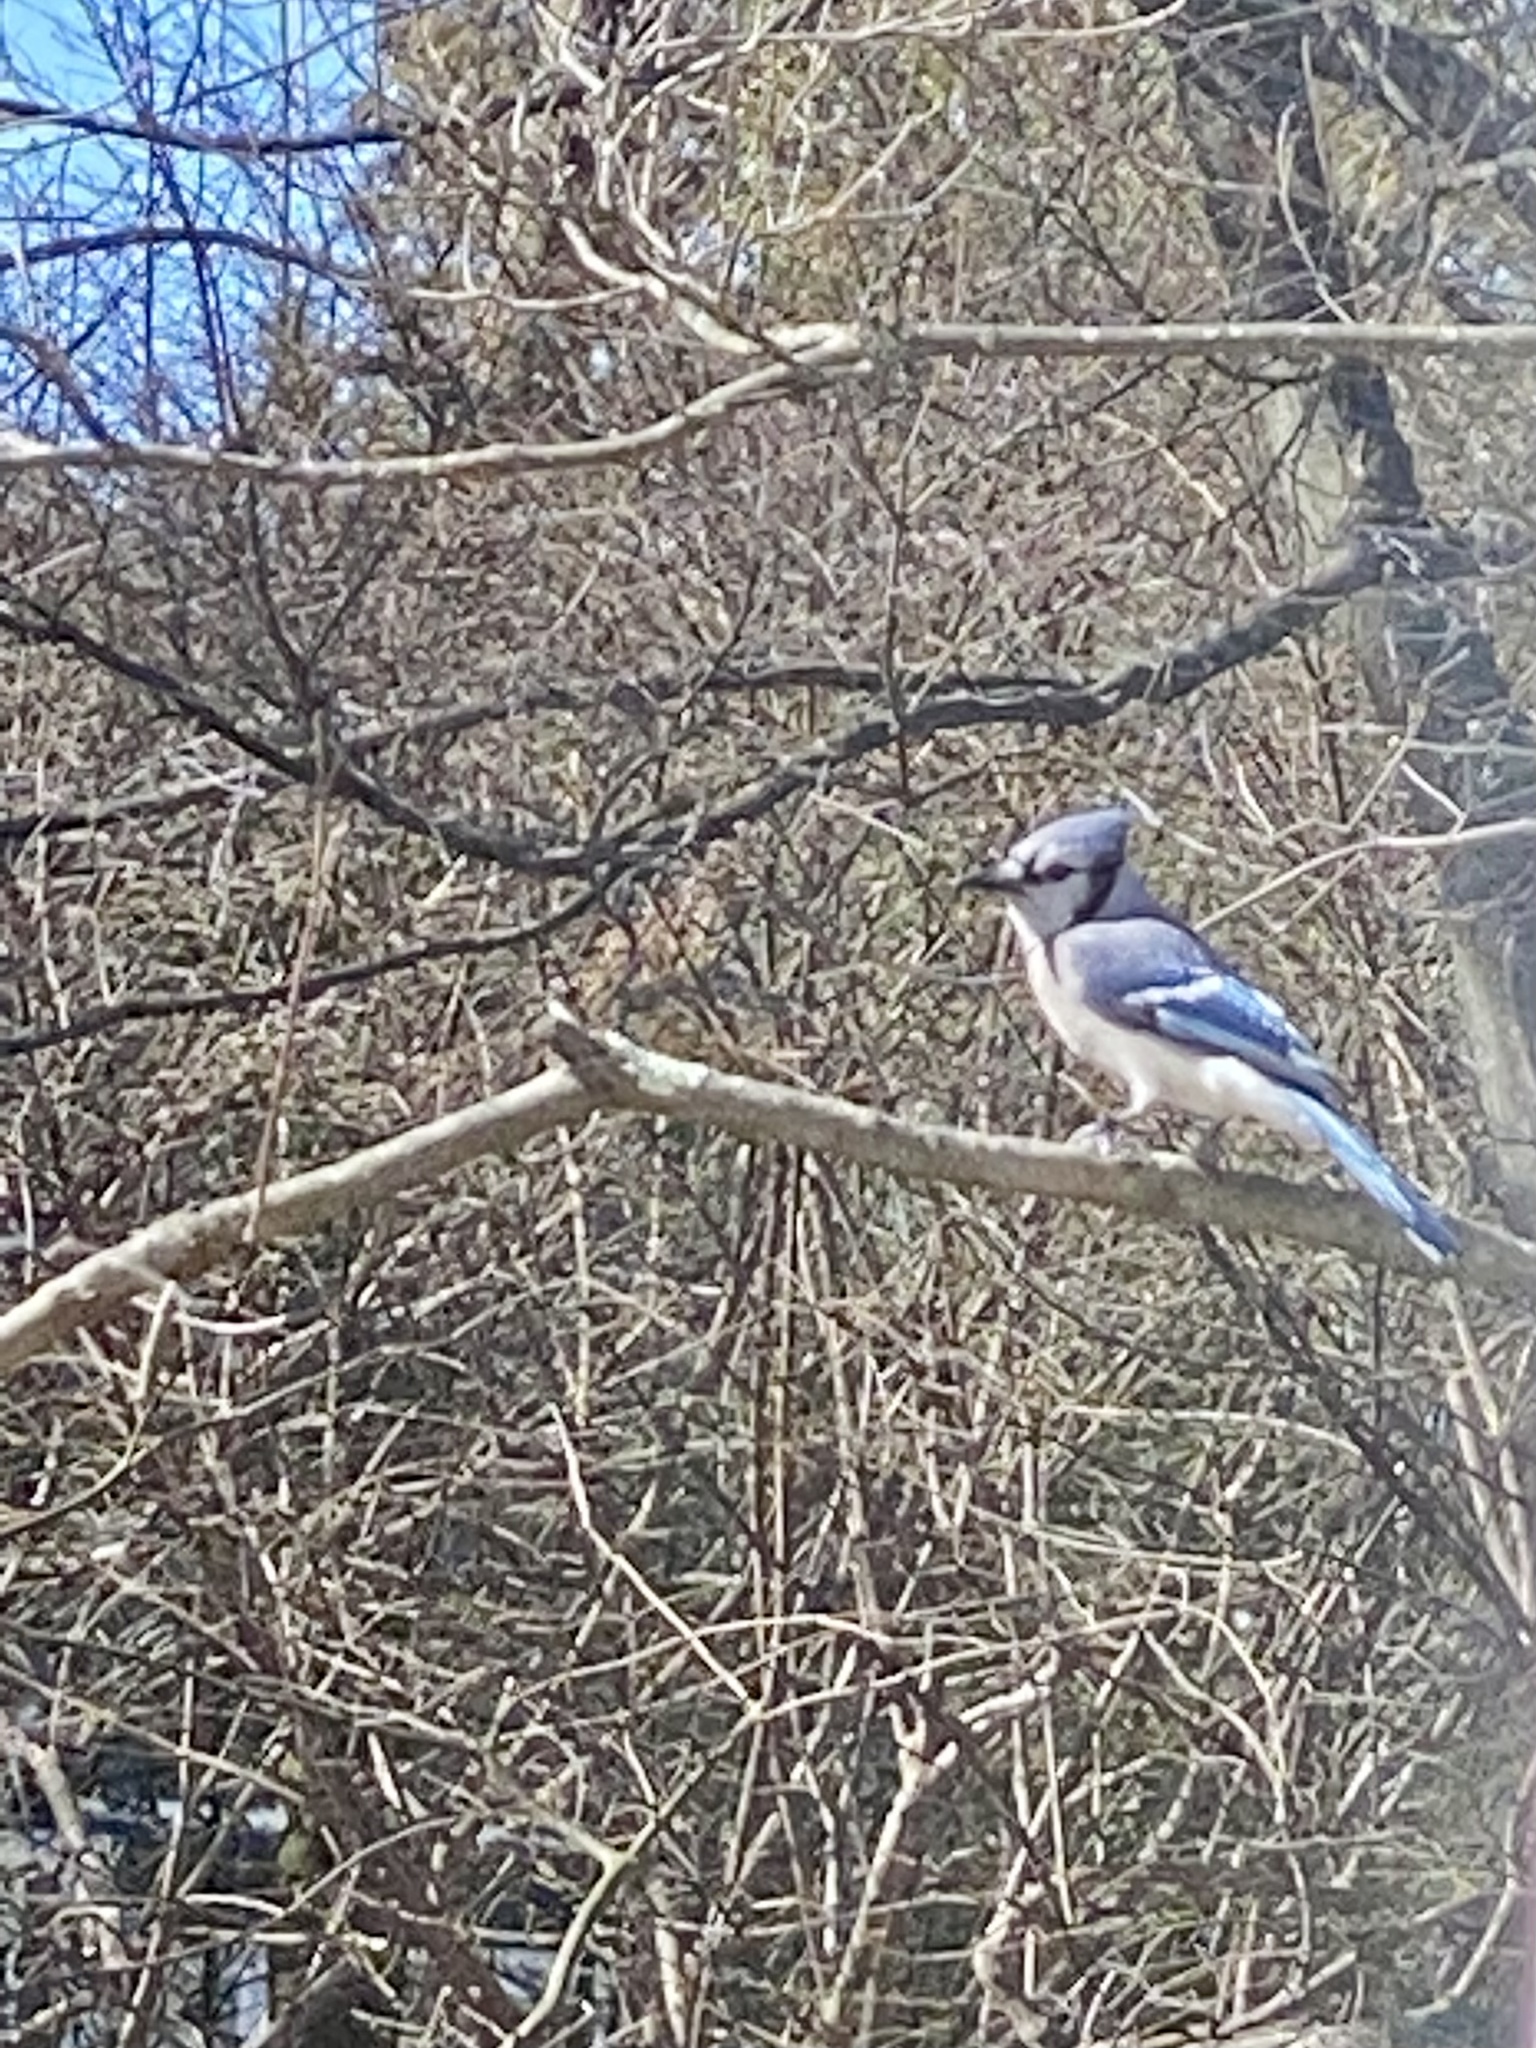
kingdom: Animalia
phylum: Chordata
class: Aves
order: Passeriformes
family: Corvidae
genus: Cyanocitta
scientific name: Cyanocitta cristata
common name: Blue jay
